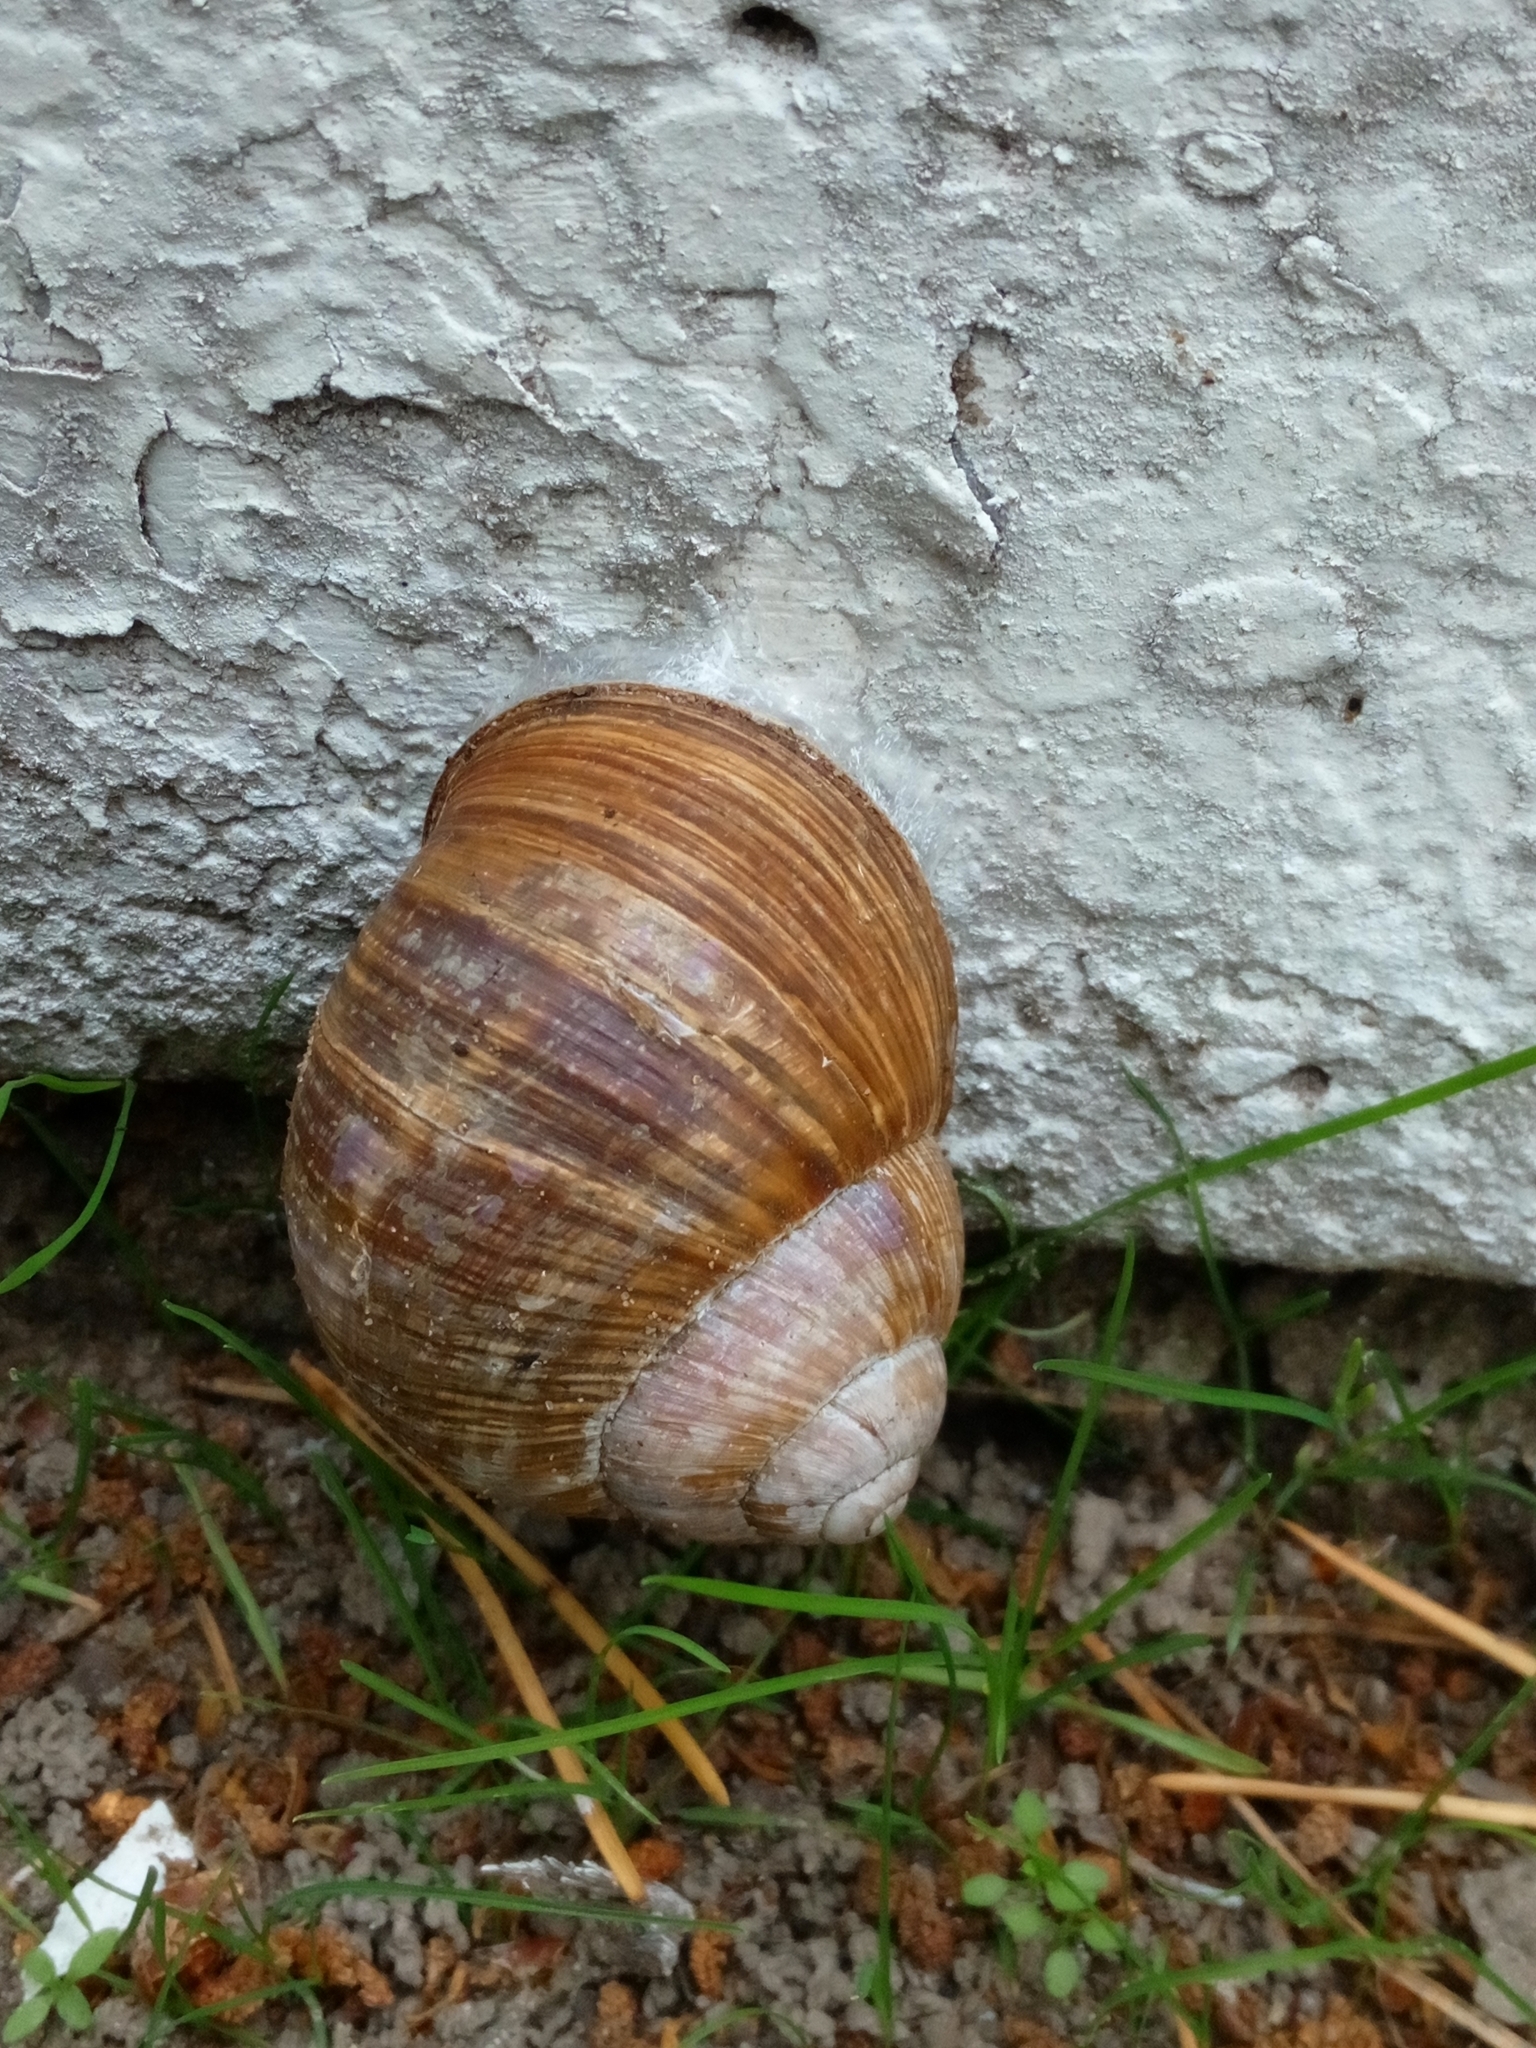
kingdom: Animalia
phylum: Mollusca
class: Gastropoda
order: Stylommatophora
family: Helicidae
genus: Helix
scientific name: Helix pomatia
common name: Roman snail
